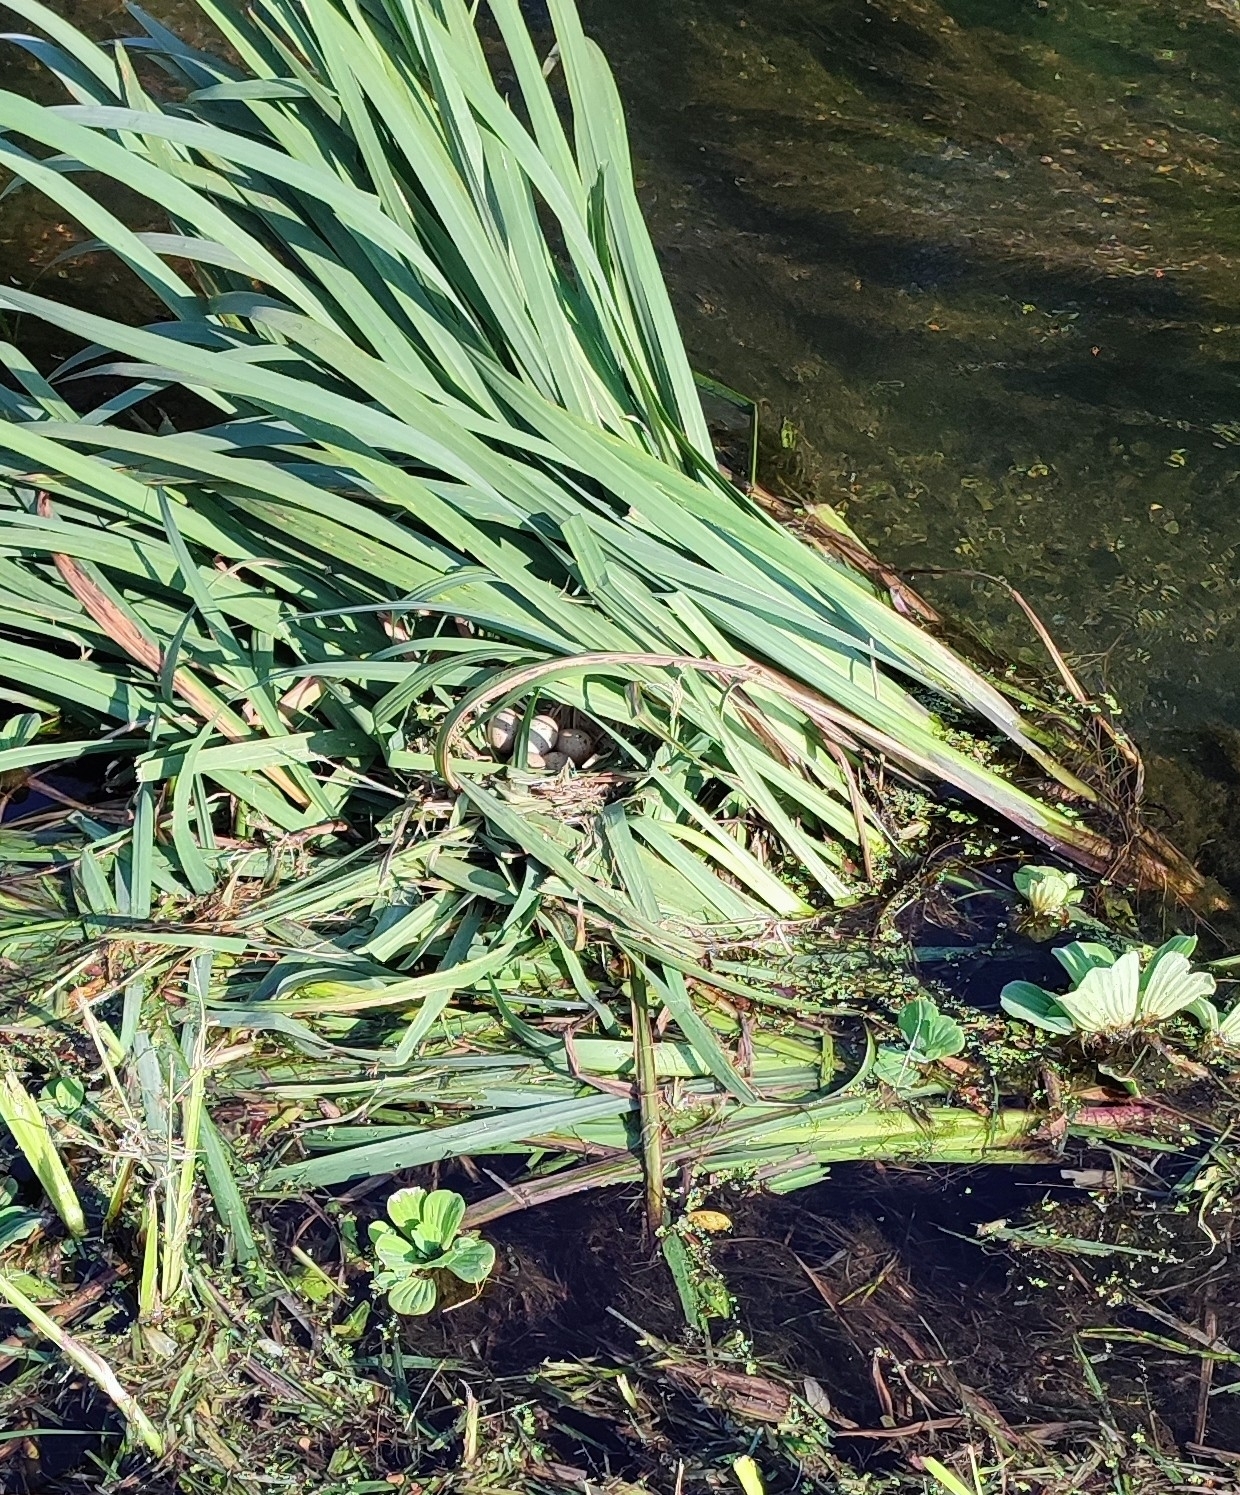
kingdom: Animalia
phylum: Chordata
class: Aves
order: Gruiformes
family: Rallidae
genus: Gallinula
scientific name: Gallinula chloropus
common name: Common moorhen
